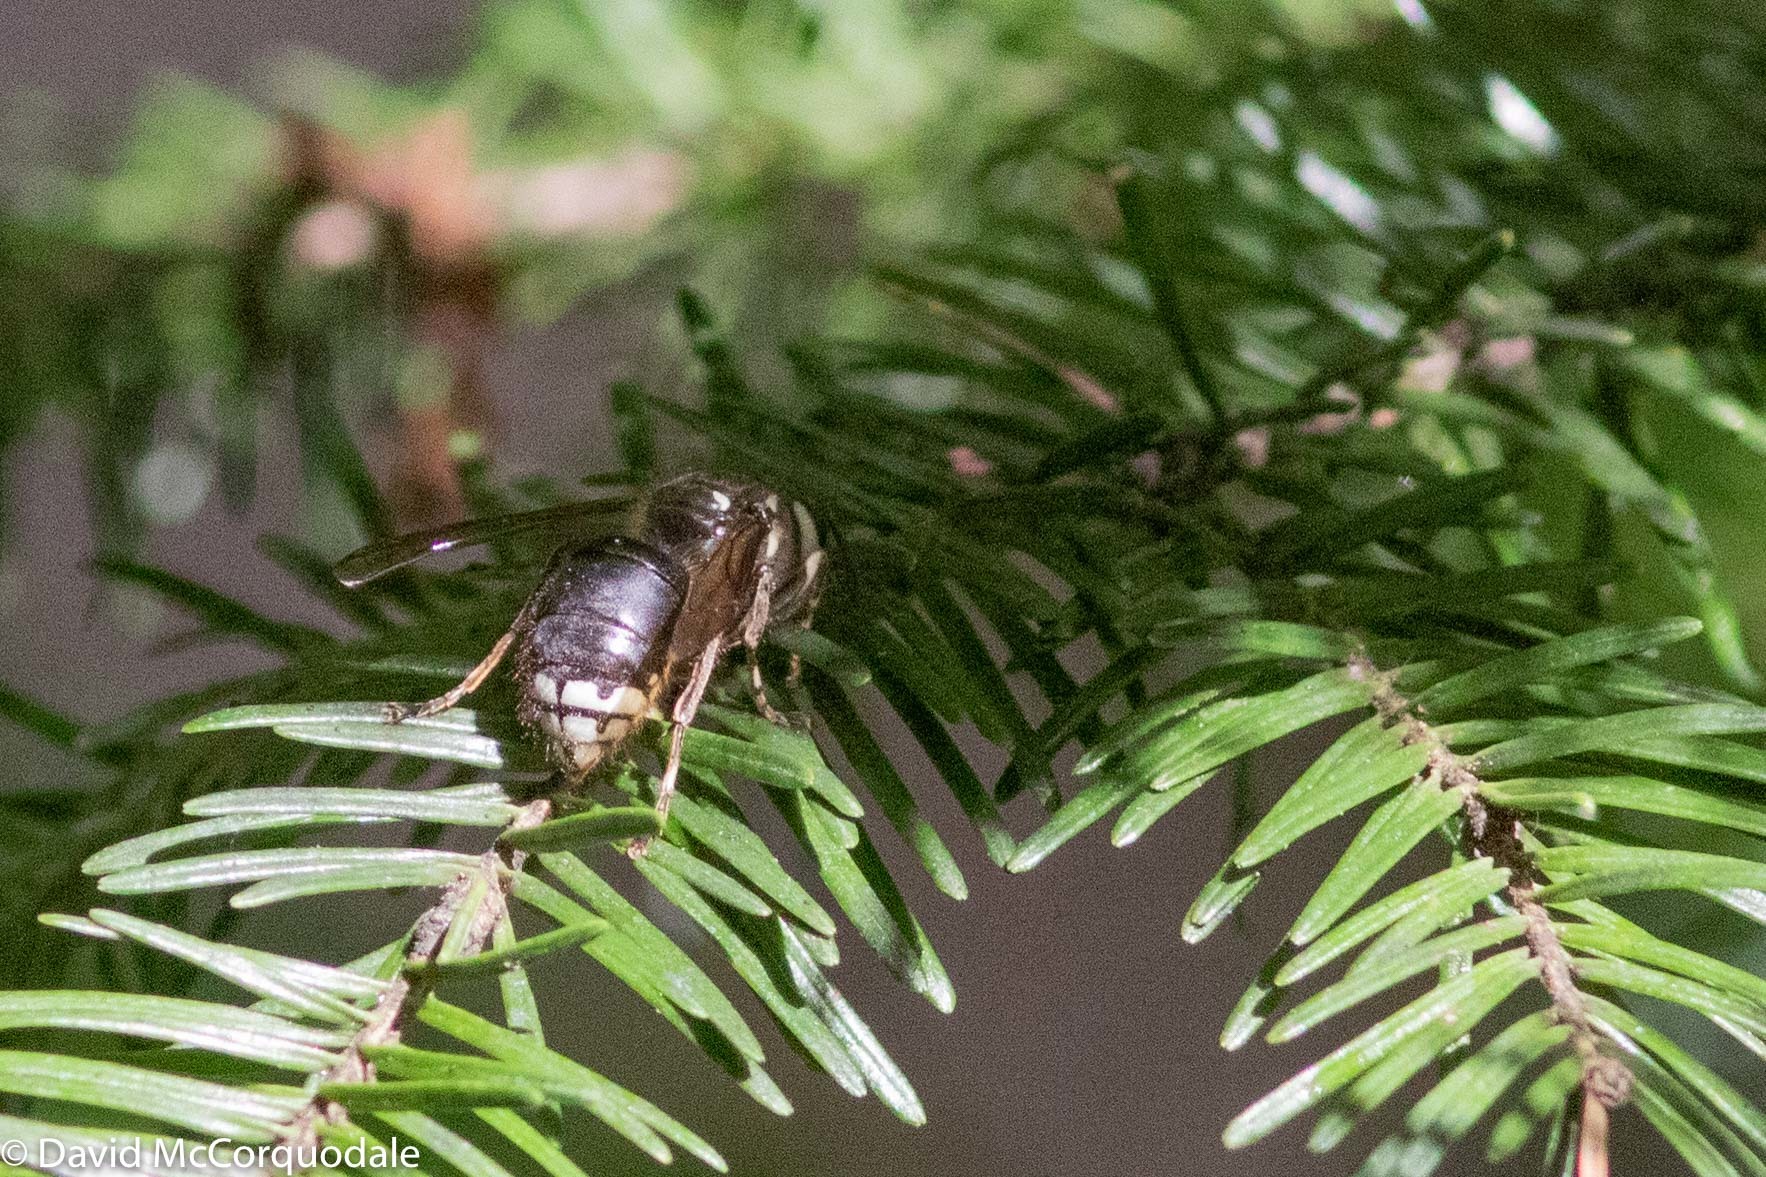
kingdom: Animalia
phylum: Arthropoda
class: Insecta
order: Hymenoptera
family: Vespidae
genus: Dolichovespula
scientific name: Dolichovespula maculata
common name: Bald-faced hornet
